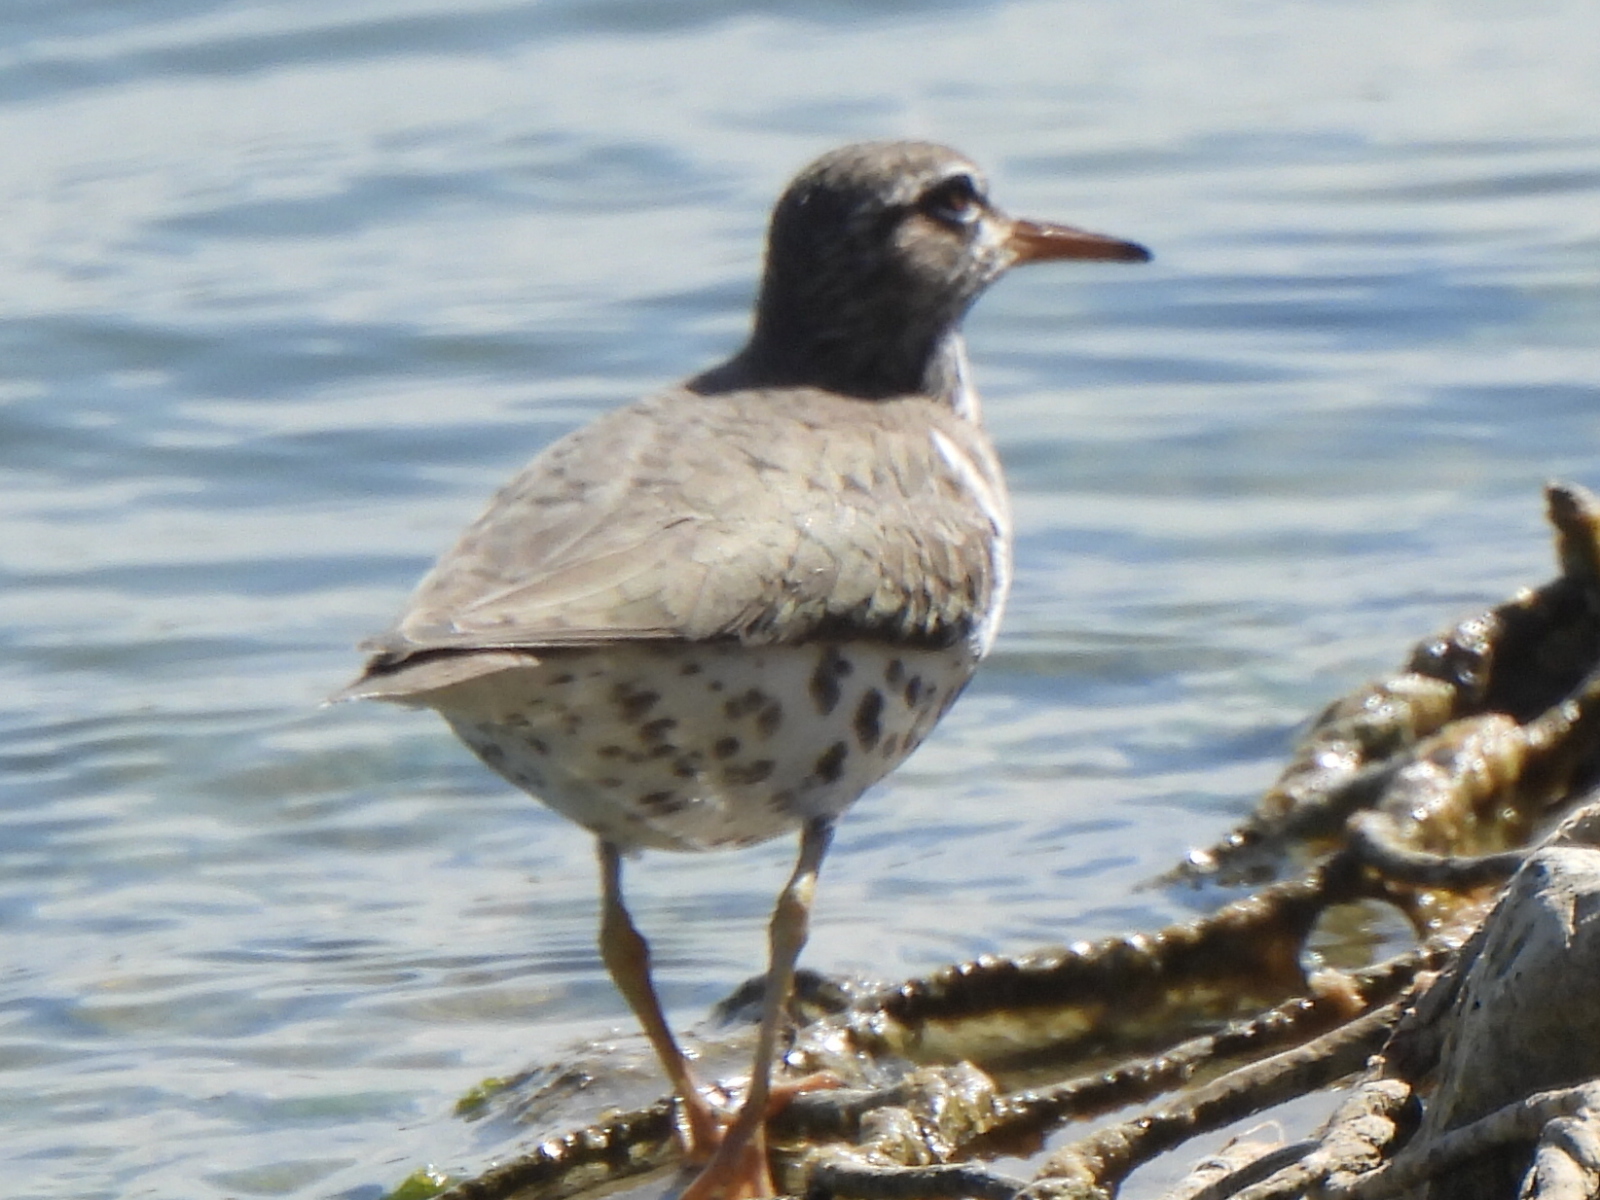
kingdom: Animalia
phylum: Chordata
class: Aves
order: Charadriiformes
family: Scolopacidae
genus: Actitis
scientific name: Actitis macularius
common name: Spotted sandpiper
